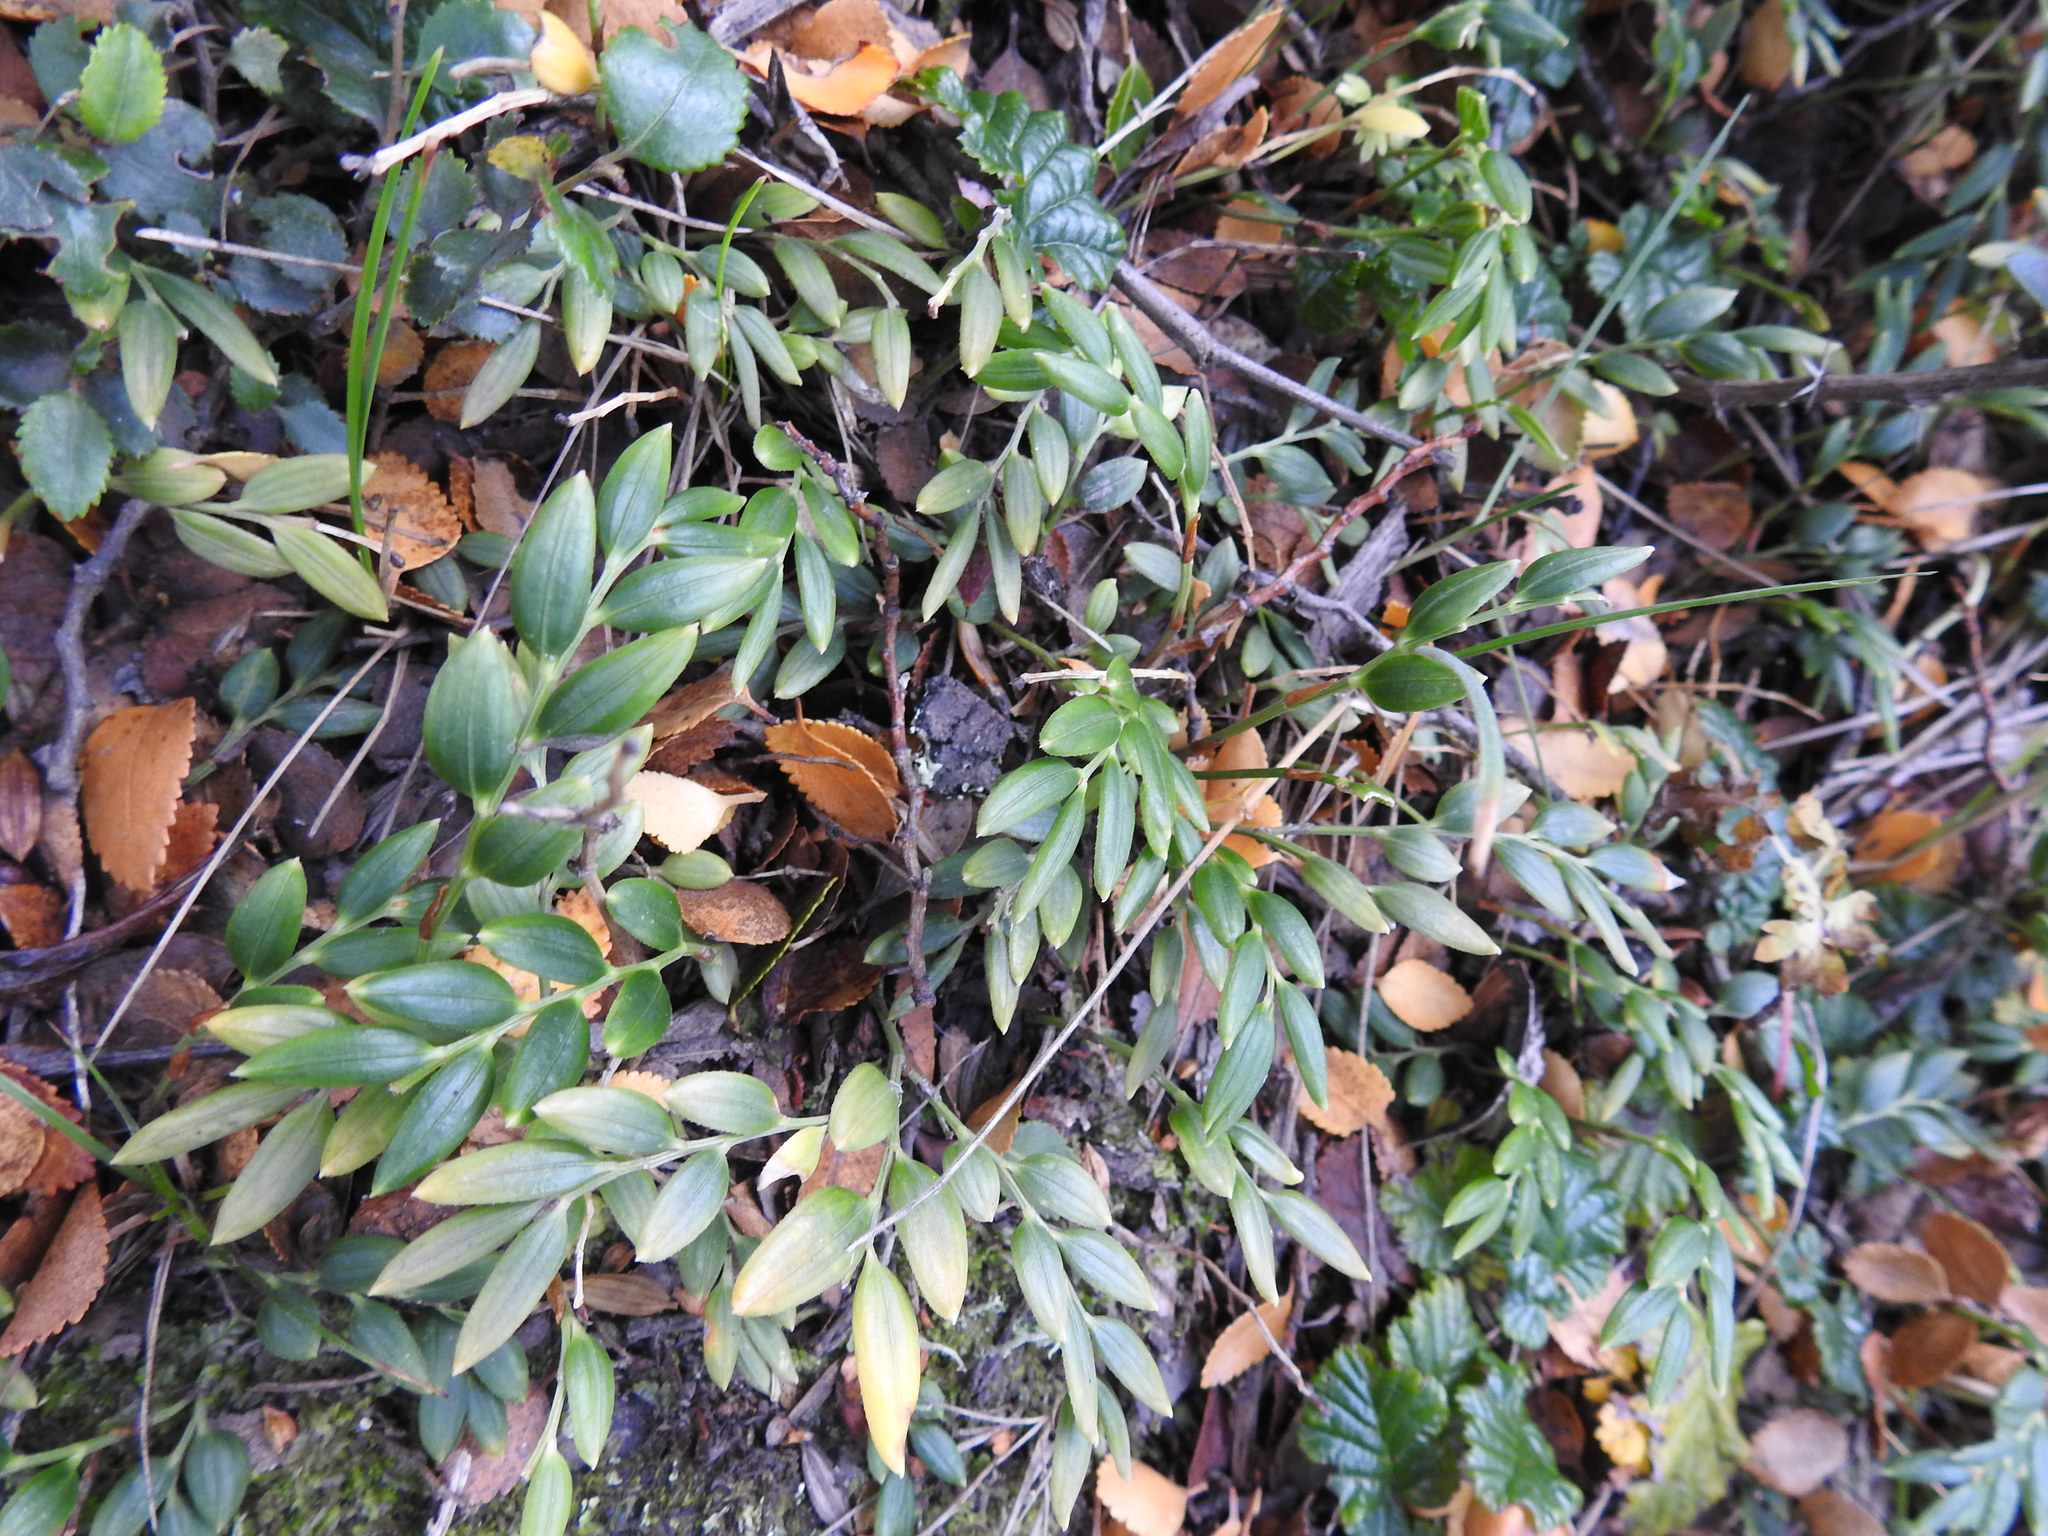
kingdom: Plantae
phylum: Tracheophyta
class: Liliopsida
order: Liliales
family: Alstroemeriaceae
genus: Luzuriaga
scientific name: Luzuriaga marginata
